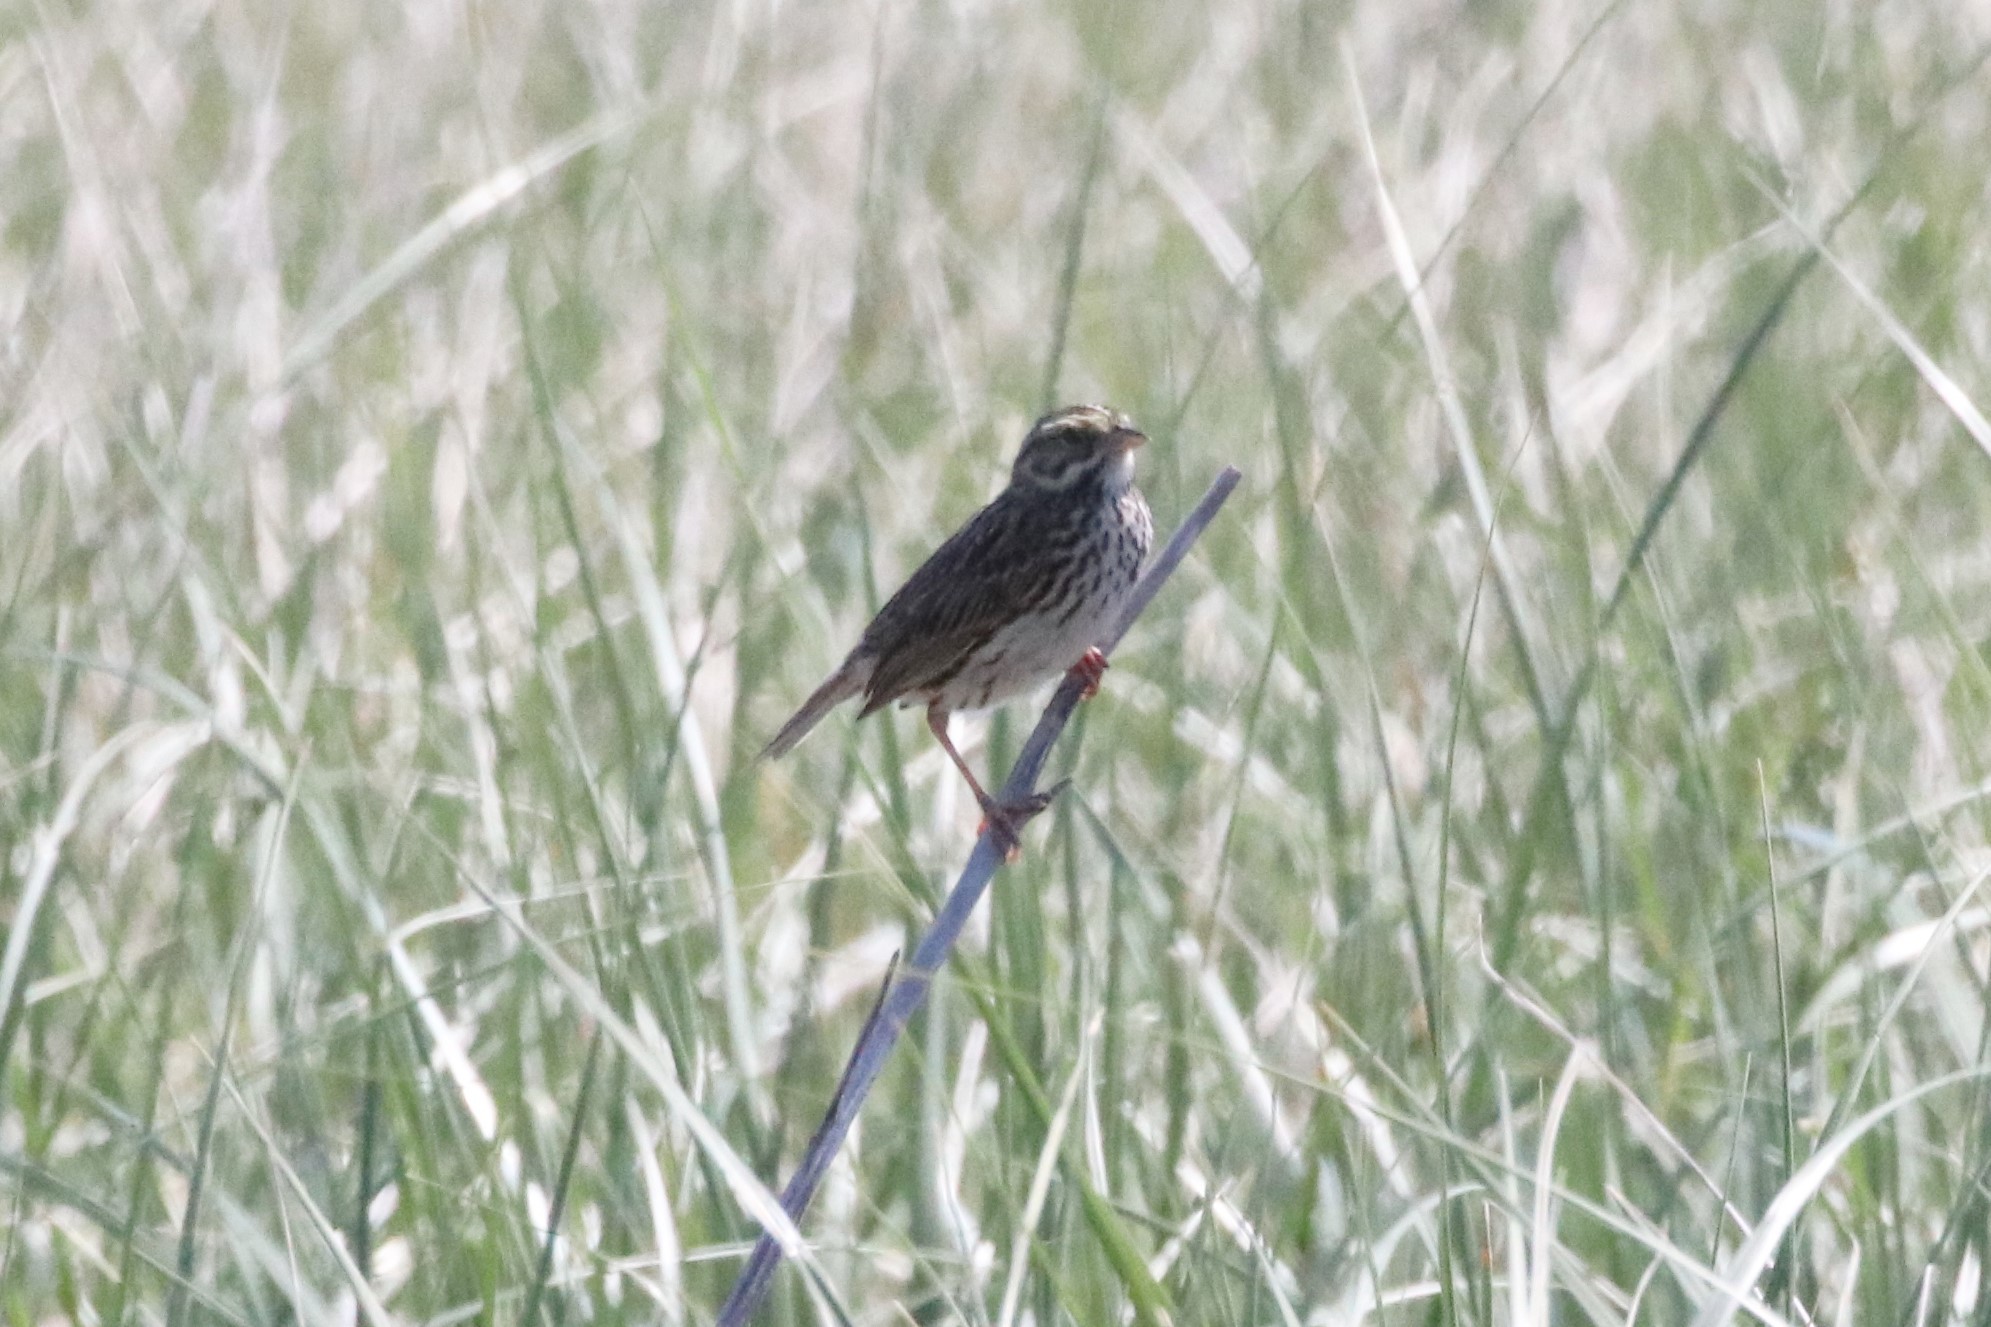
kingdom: Animalia
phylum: Chordata
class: Aves
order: Passeriformes
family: Passerellidae
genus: Passerculus
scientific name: Passerculus sandwichensis
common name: Savannah sparrow
